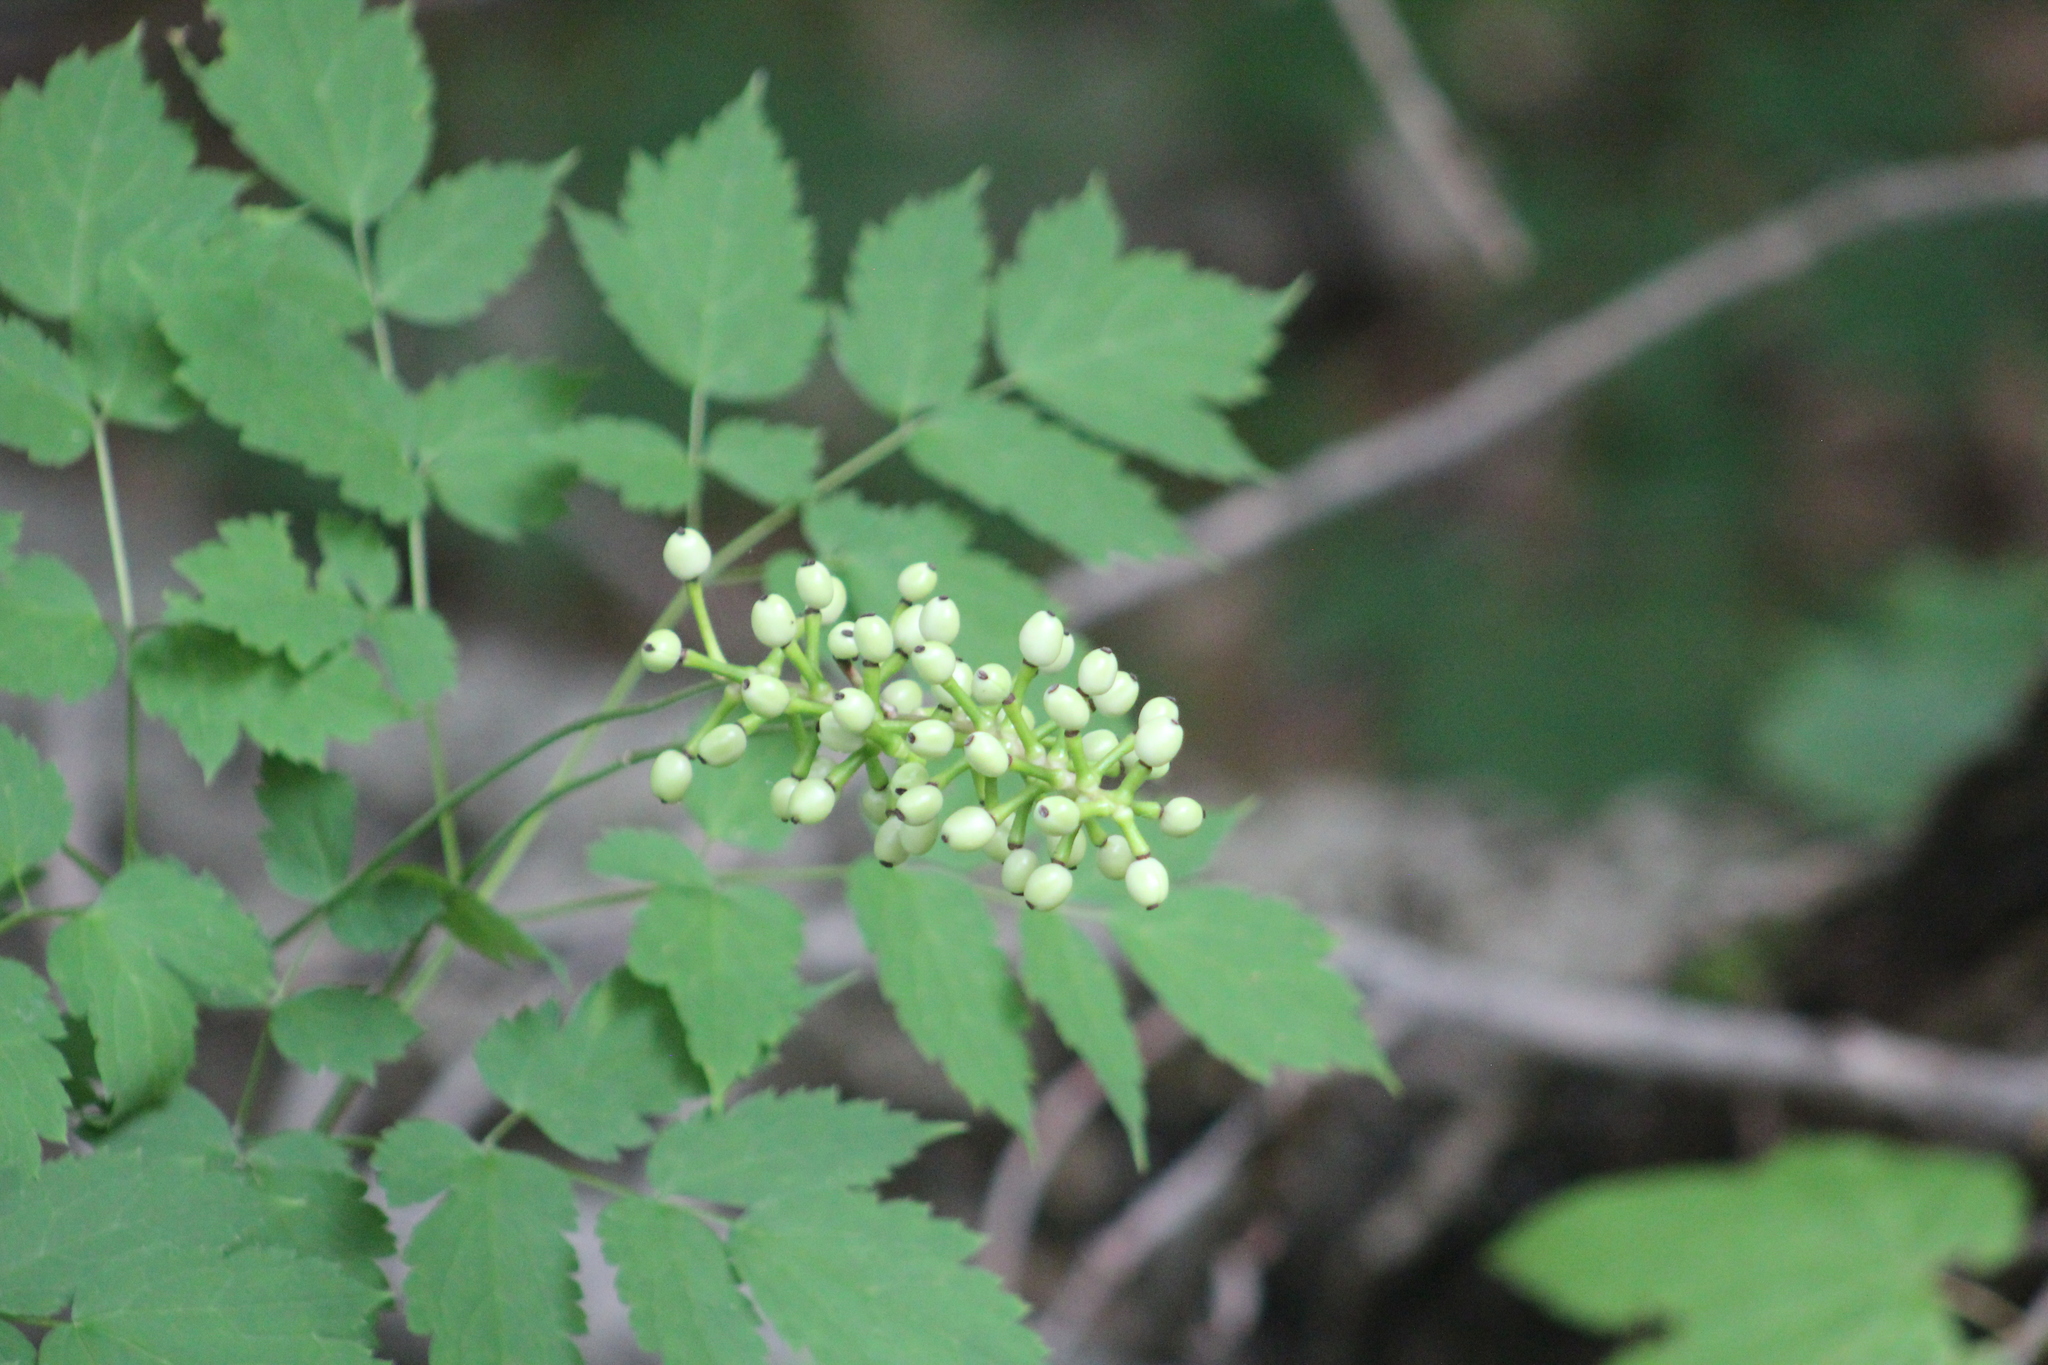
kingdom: Plantae
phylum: Tracheophyta
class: Magnoliopsida
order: Ranunculales
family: Ranunculaceae
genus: Actaea
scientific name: Actaea pachypoda
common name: Doll's-eyes
